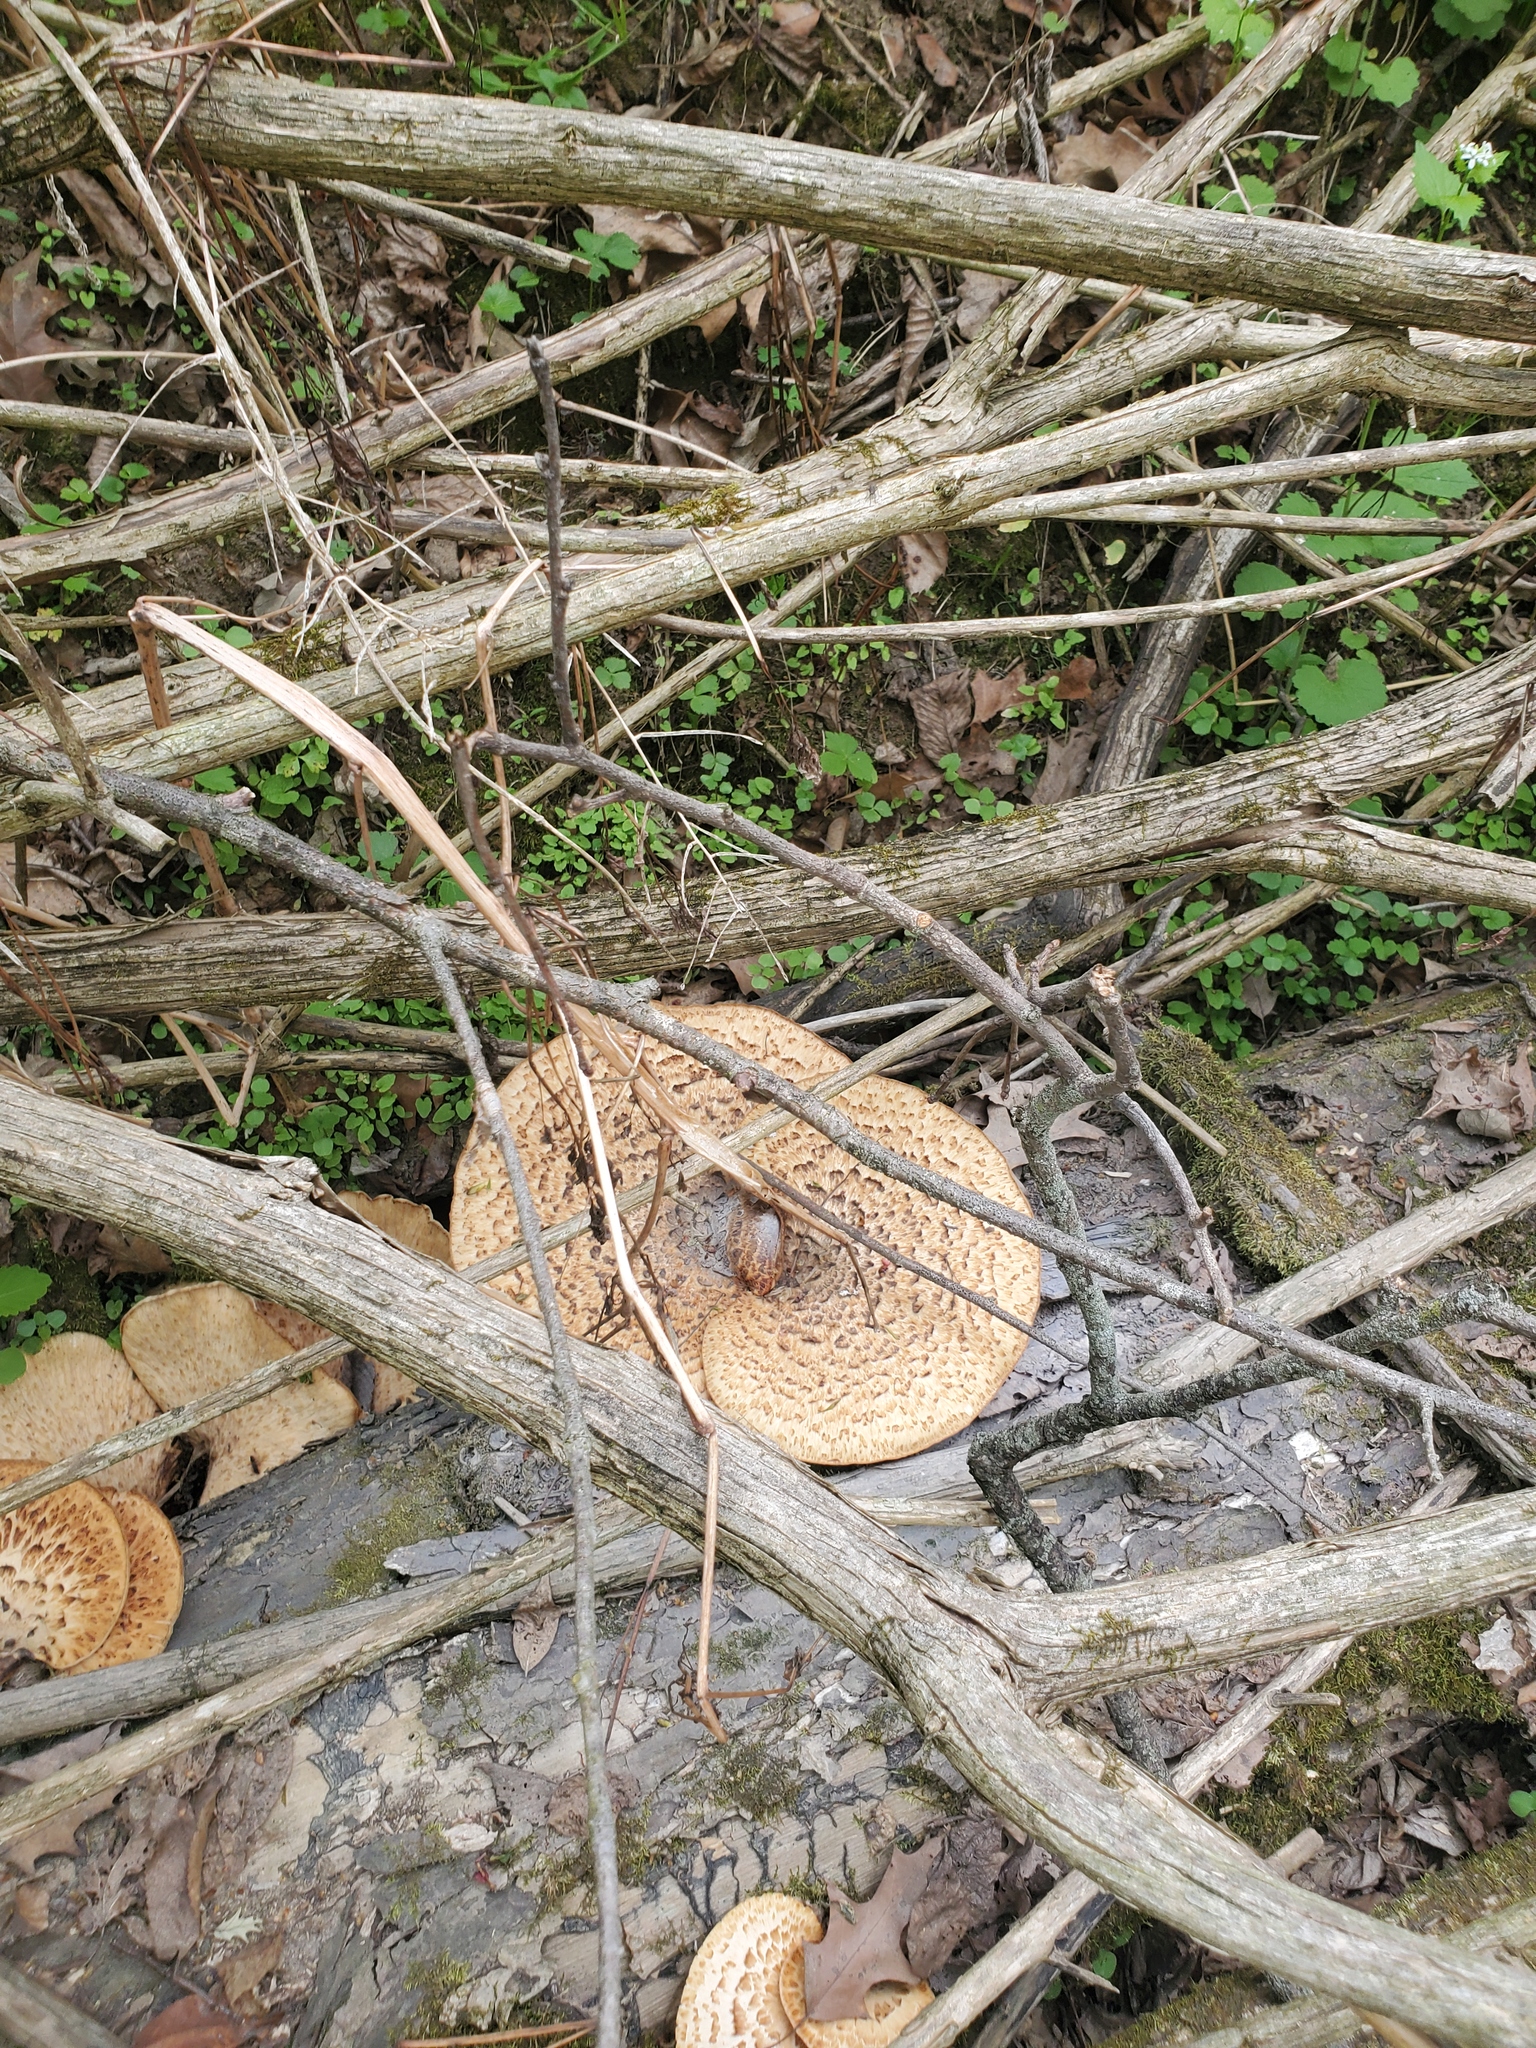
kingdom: Fungi
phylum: Basidiomycota
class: Agaricomycetes
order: Polyporales
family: Polyporaceae
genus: Cerioporus
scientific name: Cerioporus squamosus
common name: Dryad's saddle
